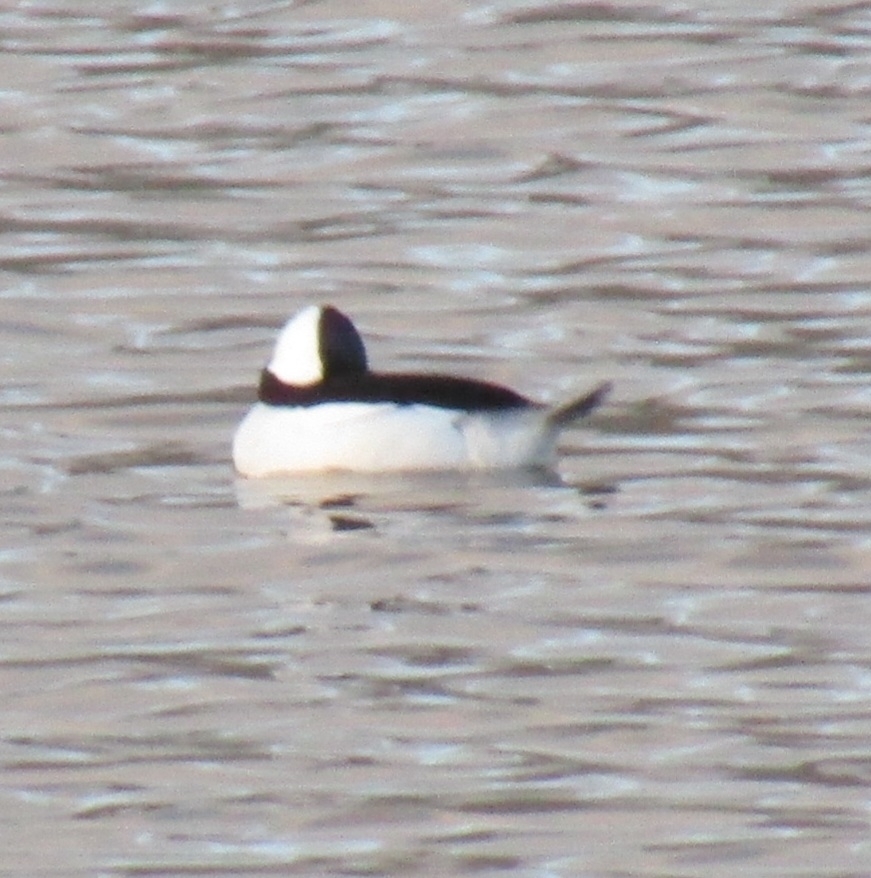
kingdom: Animalia
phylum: Chordata
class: Aves
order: Anseriformes
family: Anatidae
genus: Bucephala
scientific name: Bucephala albeola
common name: Bufflehead
